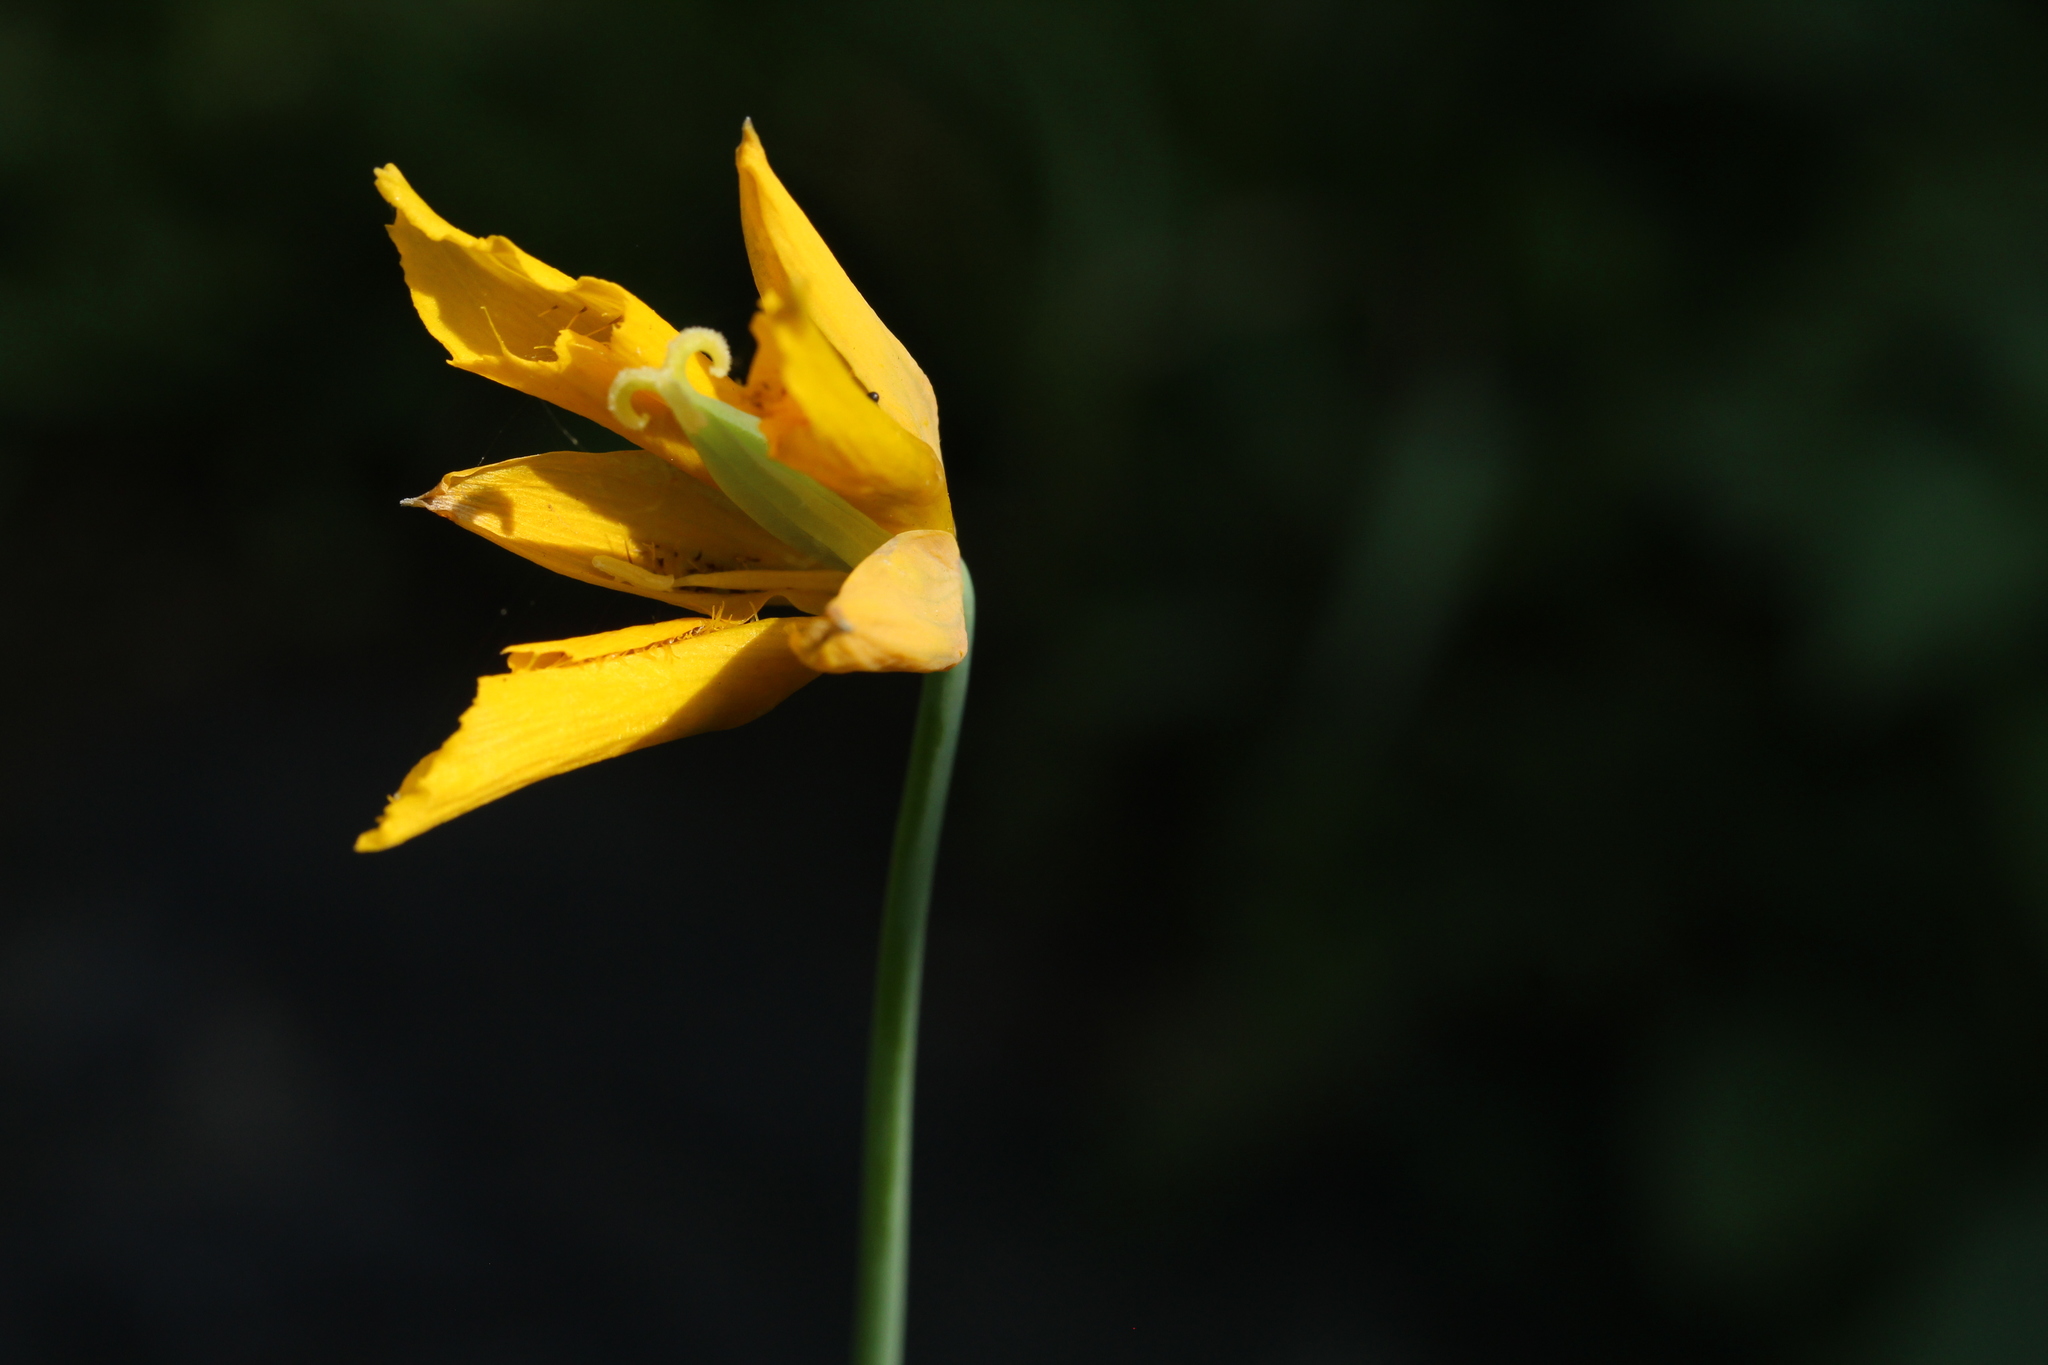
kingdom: Plantae
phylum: Tracheophyta
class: Liliopsida
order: Liliales
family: Liliaceae
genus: Calochortus
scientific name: Calochortus barbatus
